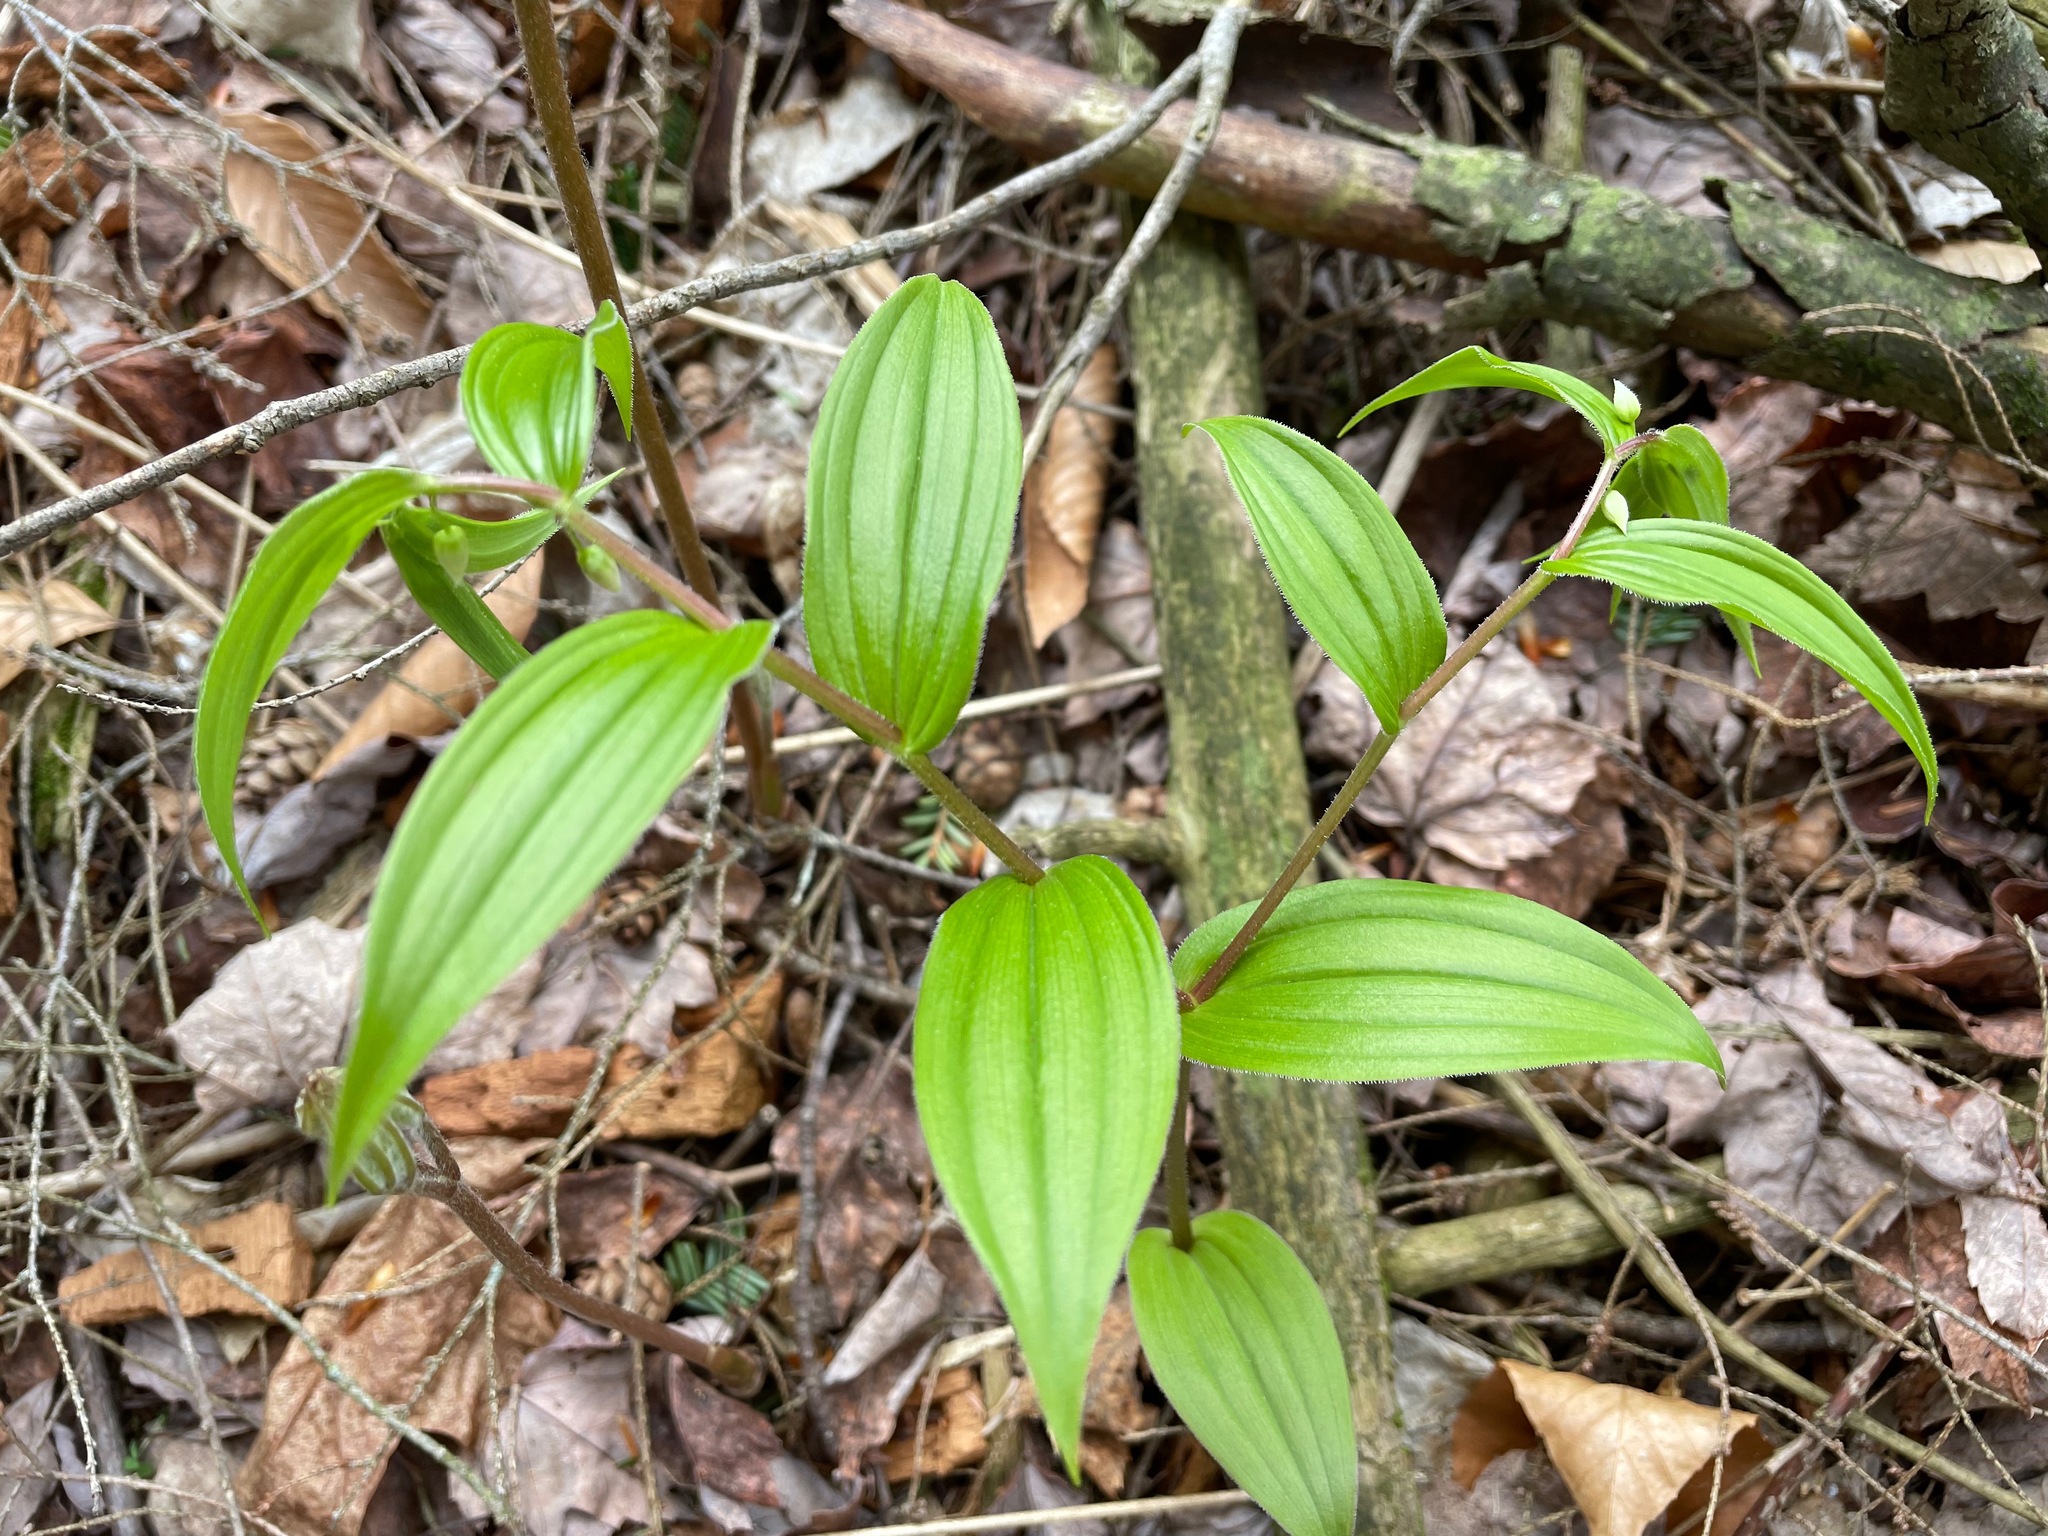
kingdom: Plantae
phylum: Tracheophyta
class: Liliopsida
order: Liliales
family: Liliaceae
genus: Streptopus
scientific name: Streptopus lanceolatus
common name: Rose mandarin
